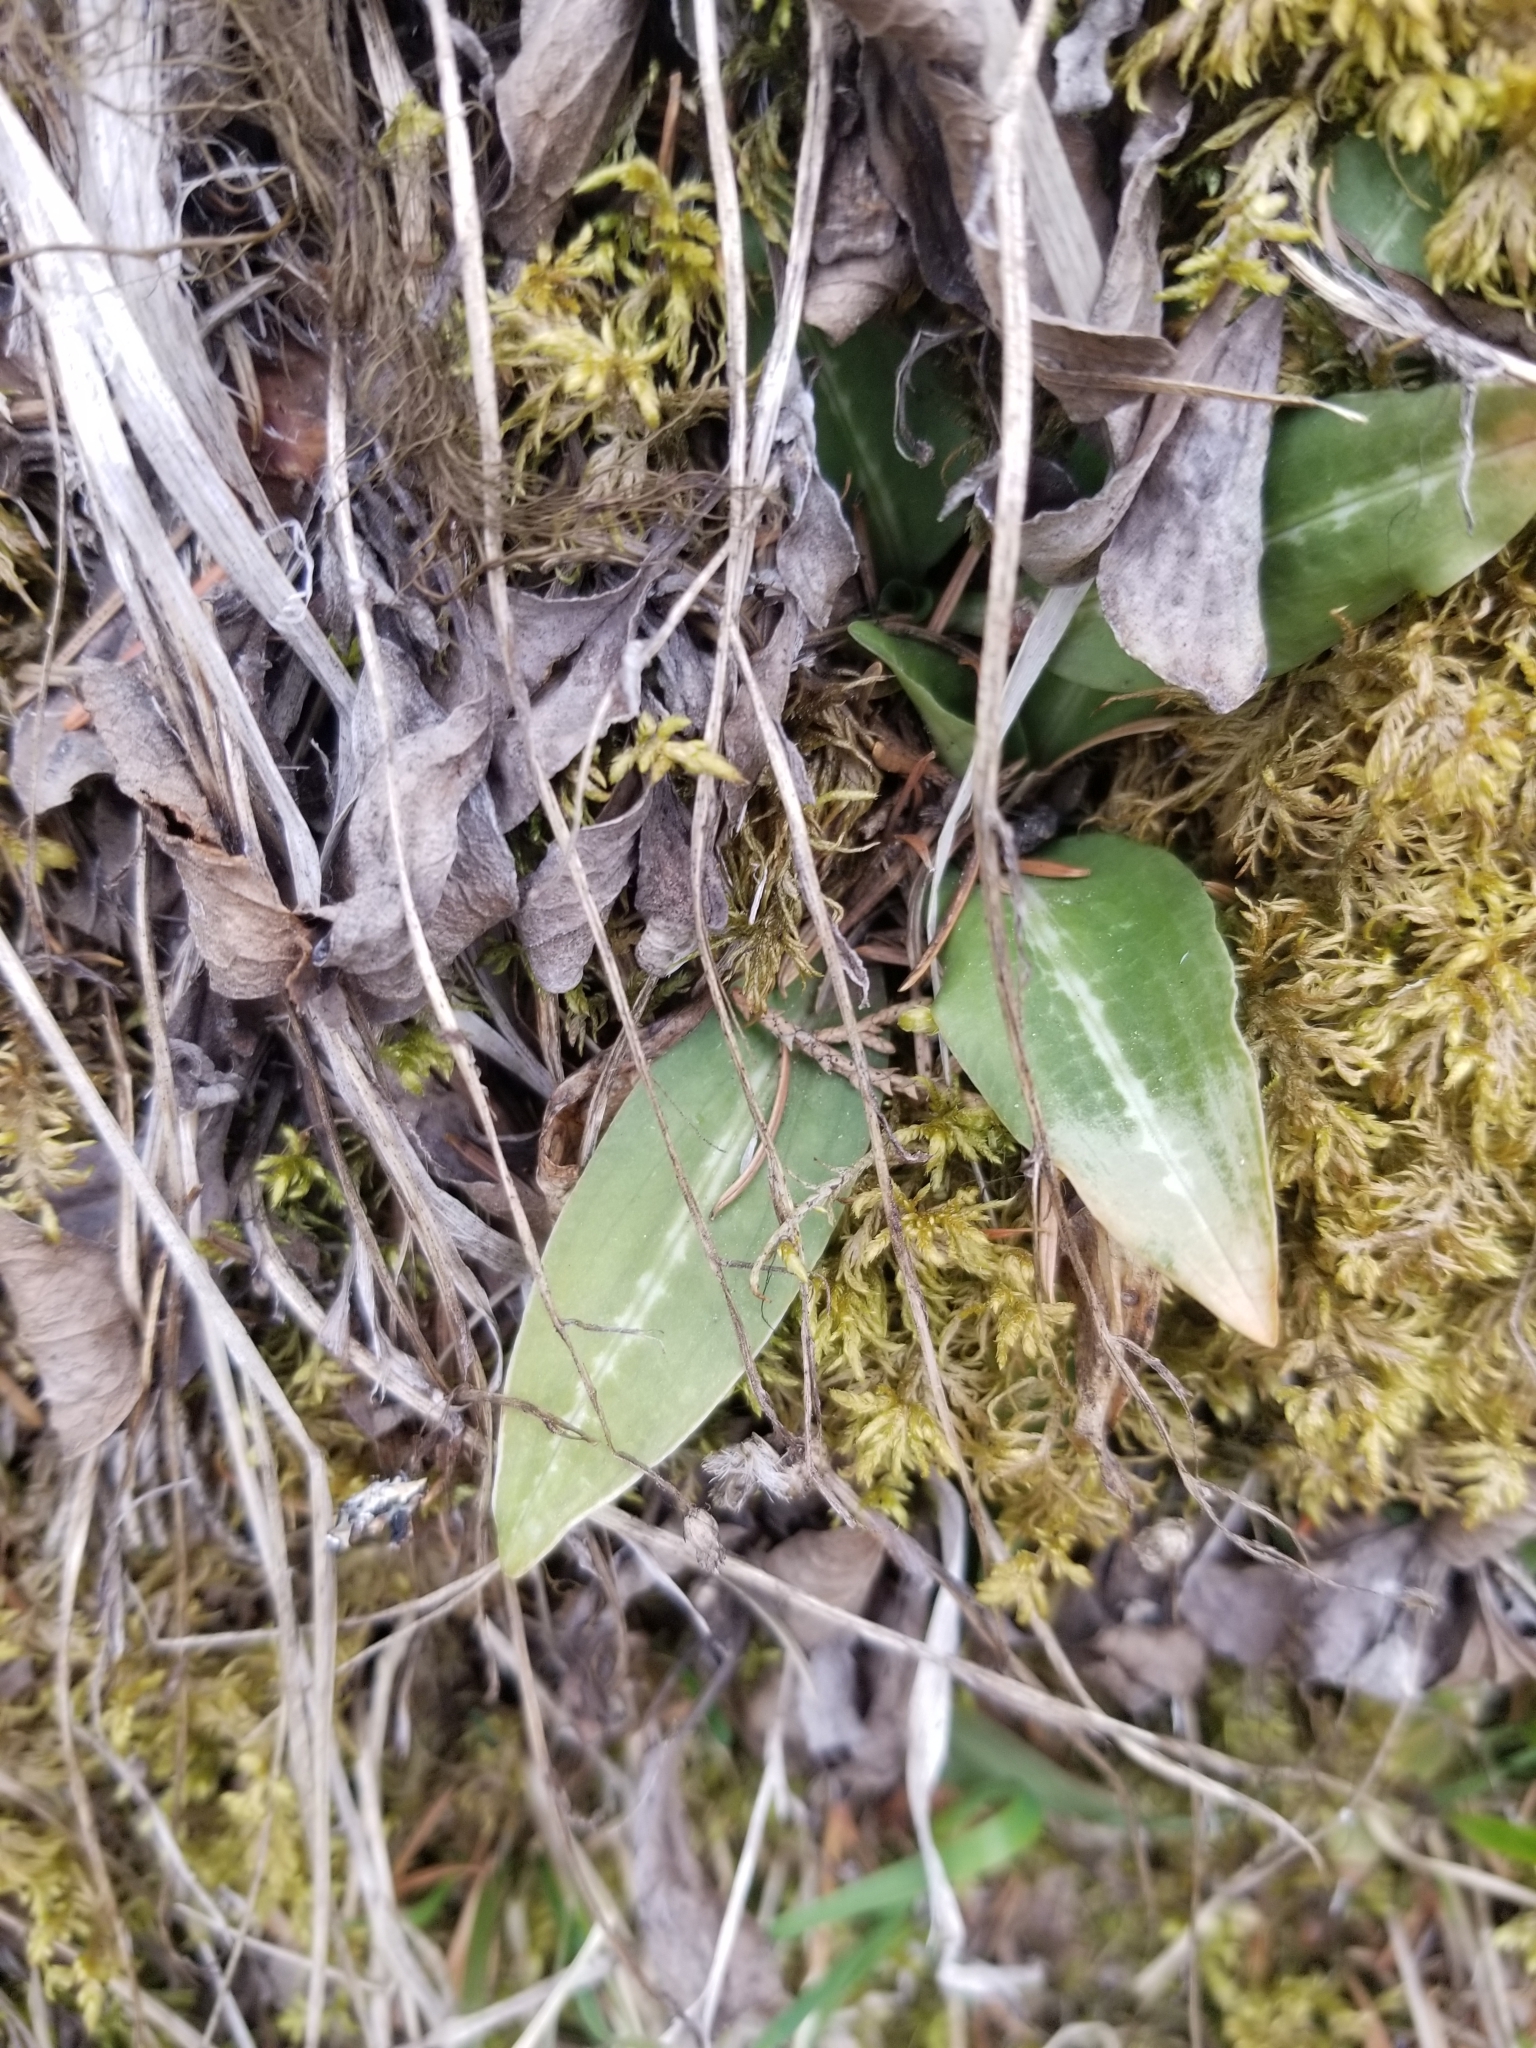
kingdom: Plantae
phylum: Tracheophyta
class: Liliopsida
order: Asparagales
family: Orchidaceae
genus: Goodyera
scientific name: Goodyera oblongifolia
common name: Giant rattlesnake-plantain
